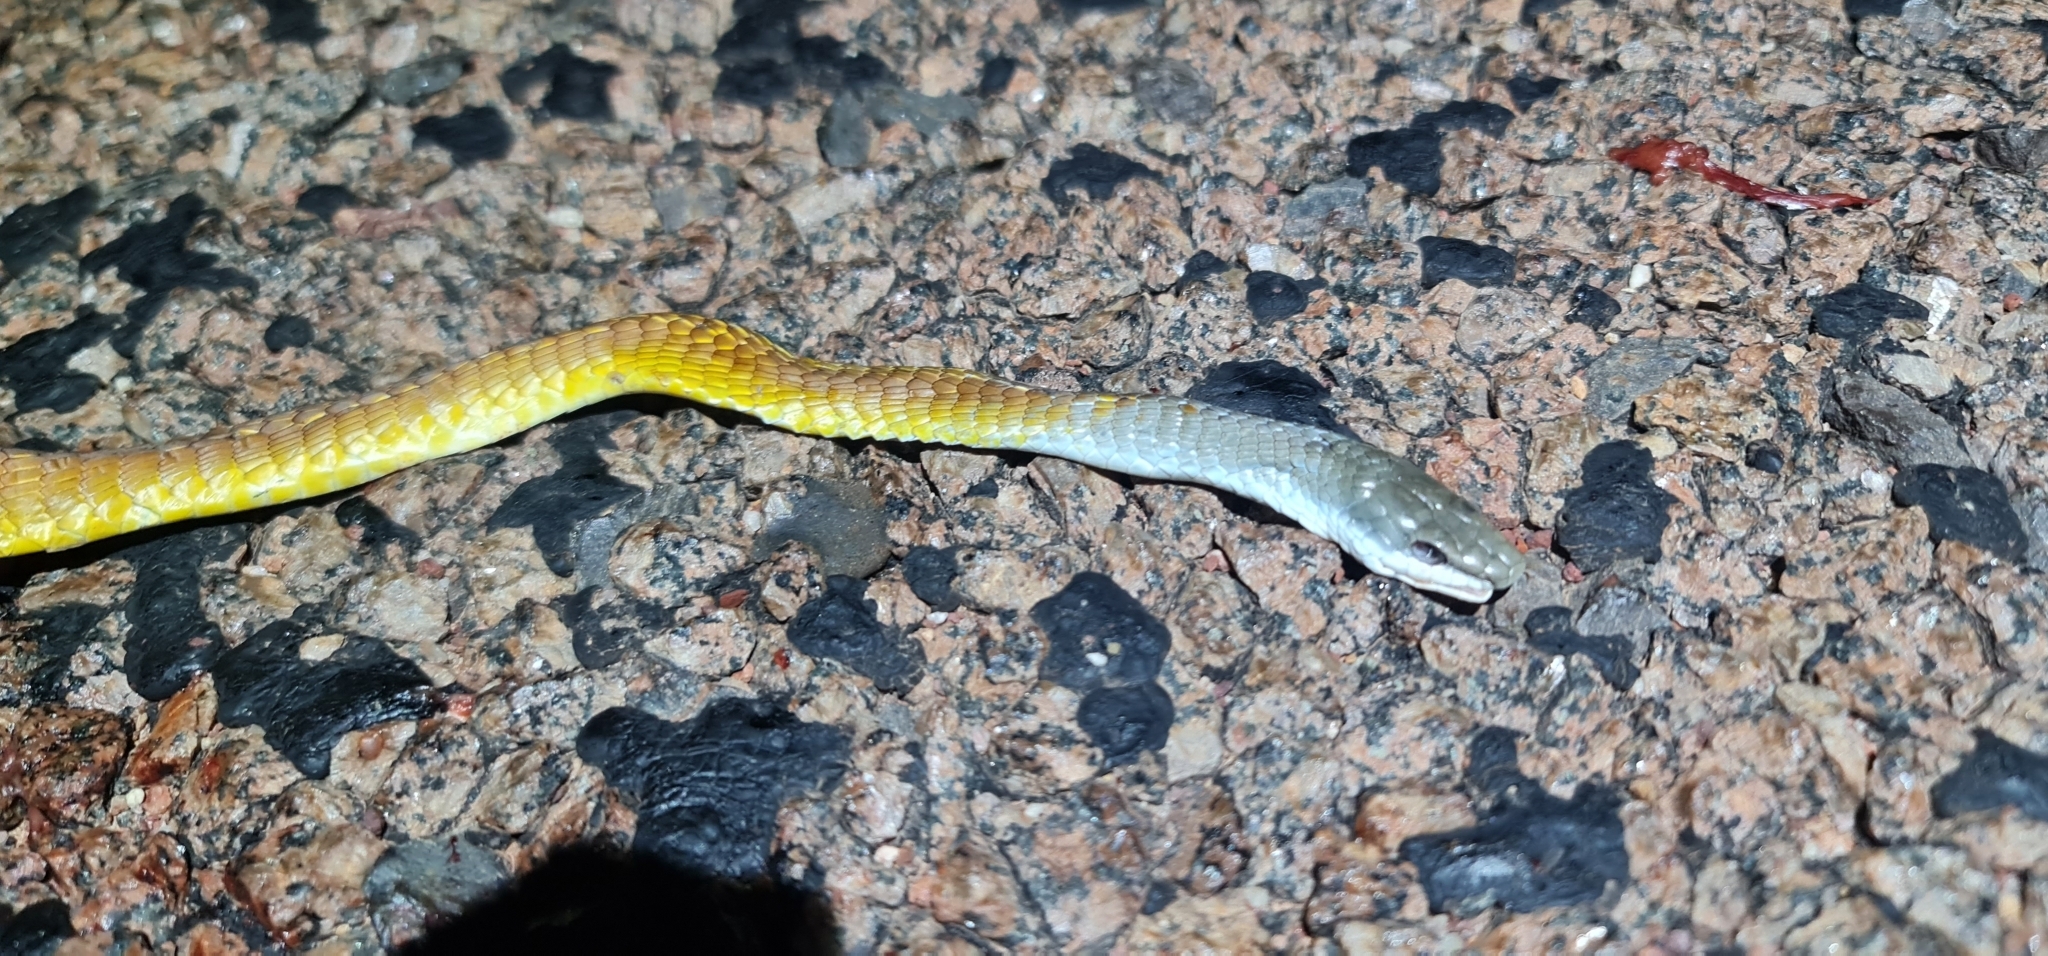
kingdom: Animalia
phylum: Chordata
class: Squamata
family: Colubridae
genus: Dendrelaphis
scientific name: Dendrelaphis punctulatus
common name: Common tree snake
